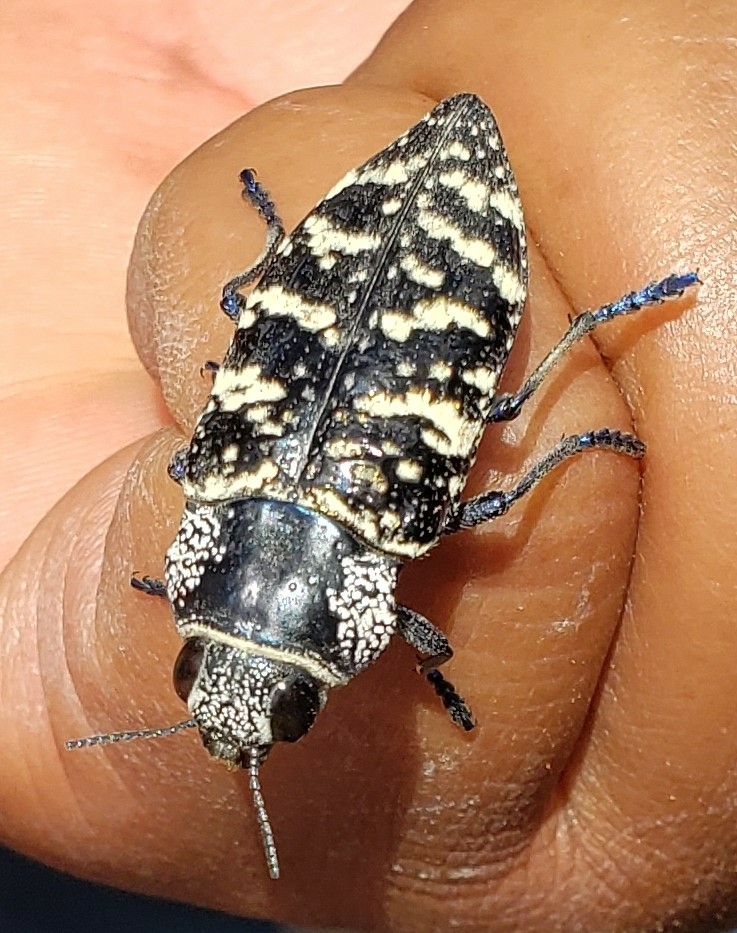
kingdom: Animalia
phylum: Arthropoda
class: Insecta
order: Coleoptera
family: Buprestidae
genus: Lampetis
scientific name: Lampetis dilaticollis
